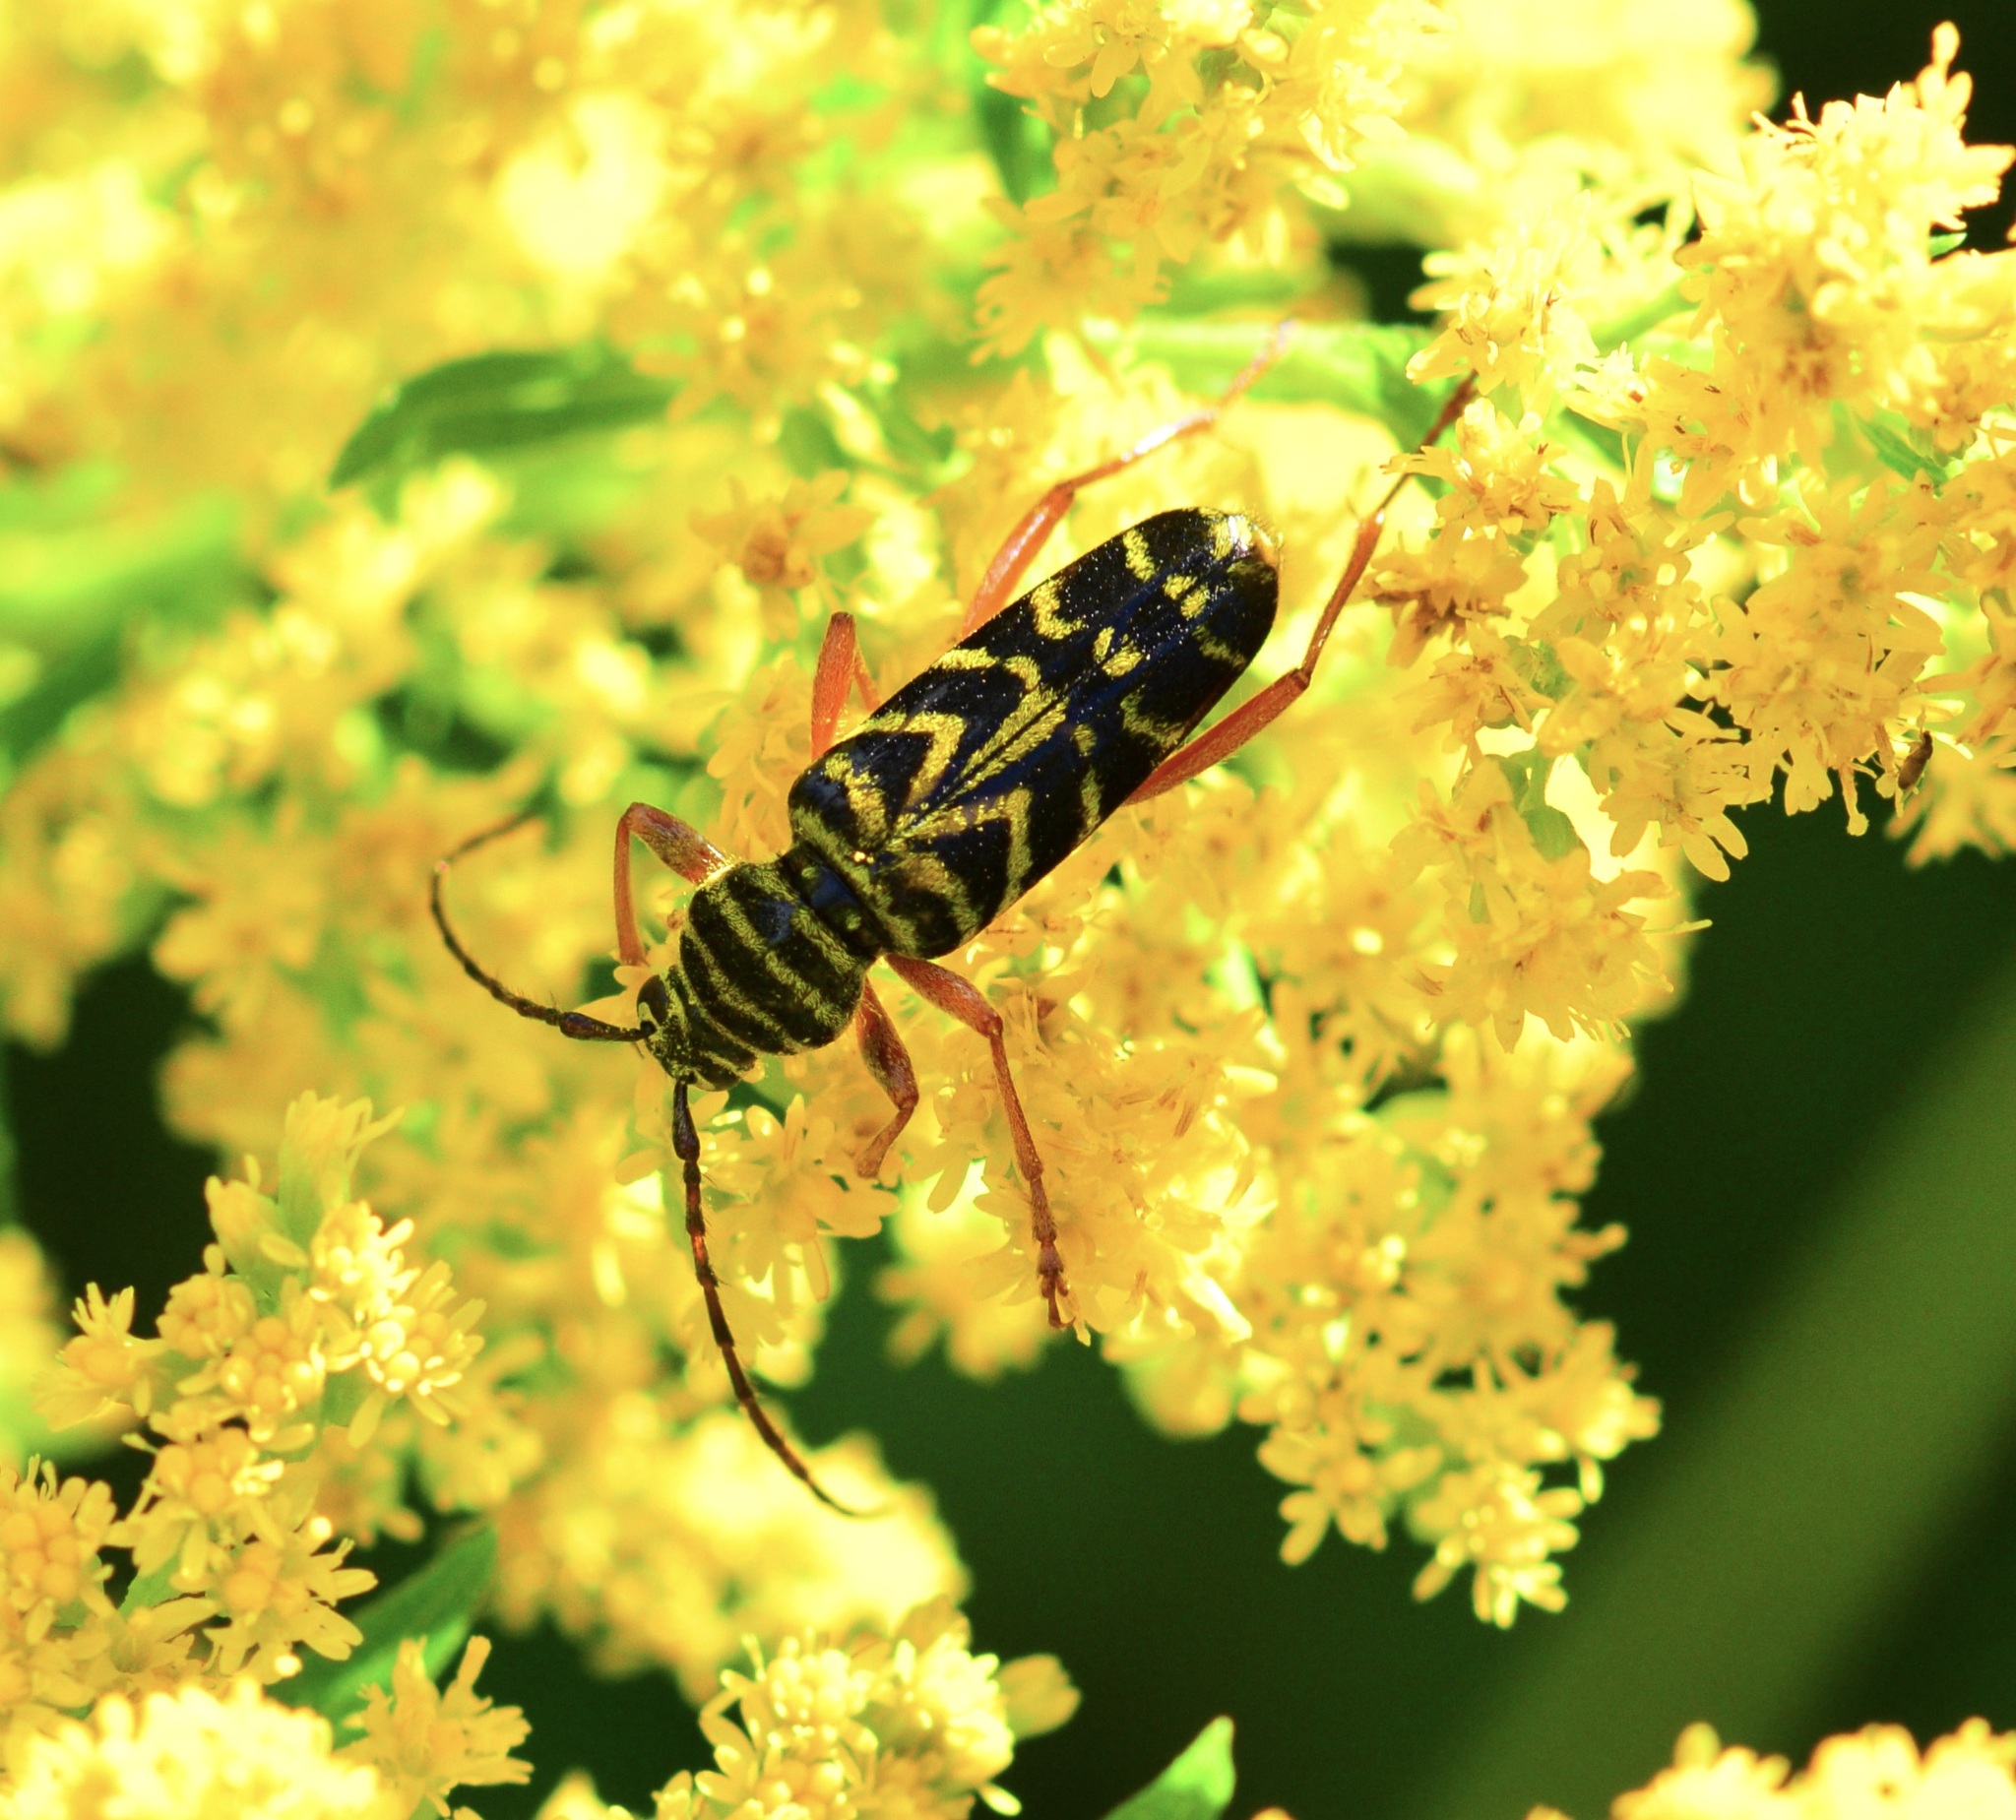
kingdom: Animalia
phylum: Arthropoda
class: Insecta
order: Coleoptera
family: Cerambycidae
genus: Megacyllene
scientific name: Megacyllene robiniae
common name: Locust borer
